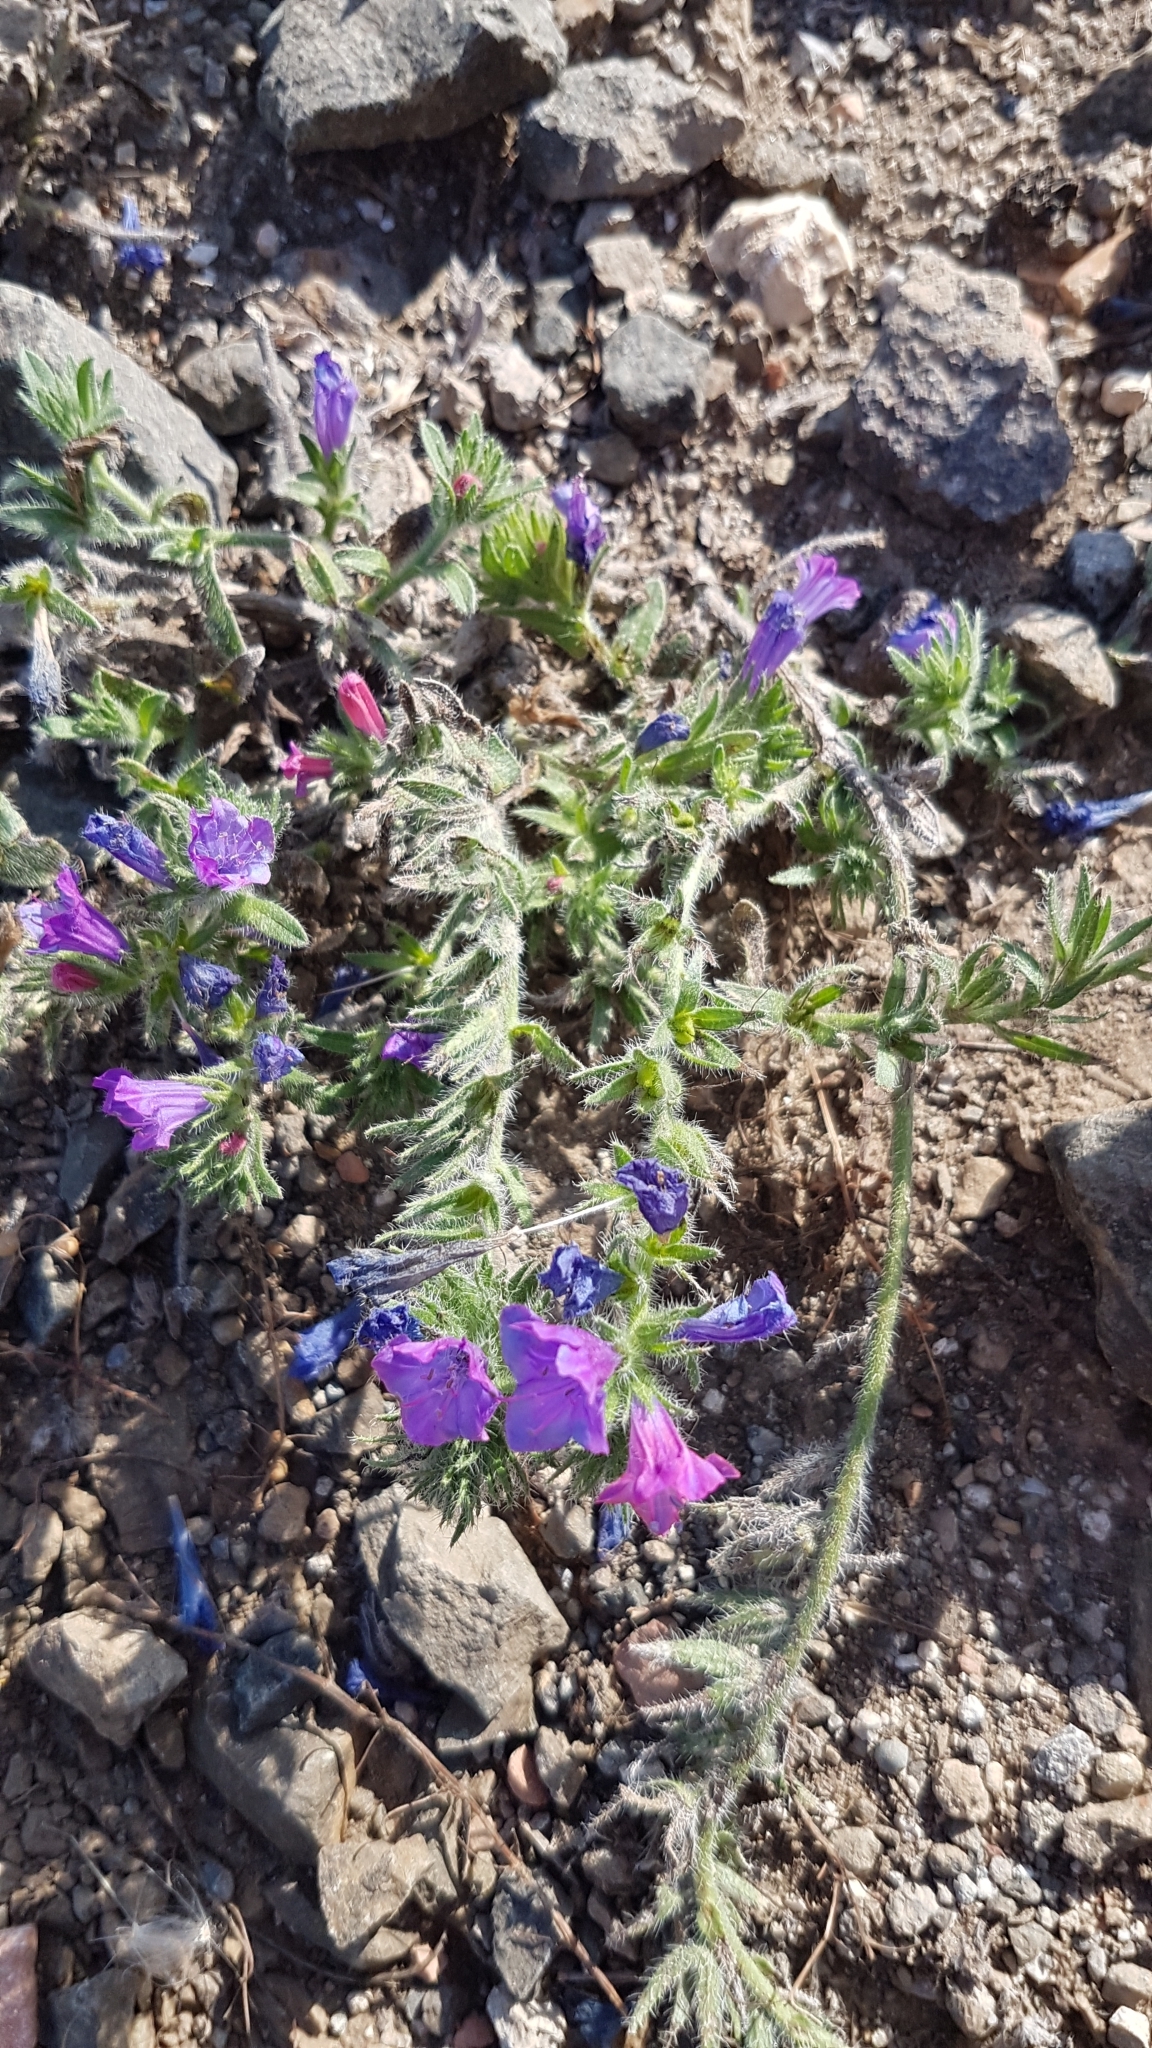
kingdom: Plantae
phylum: Tracheophyta
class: Magnoliopsida
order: Boraginales
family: Boraginaceae
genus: Echium
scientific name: Echium plantagineum
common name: Purple viper's-bugloss
